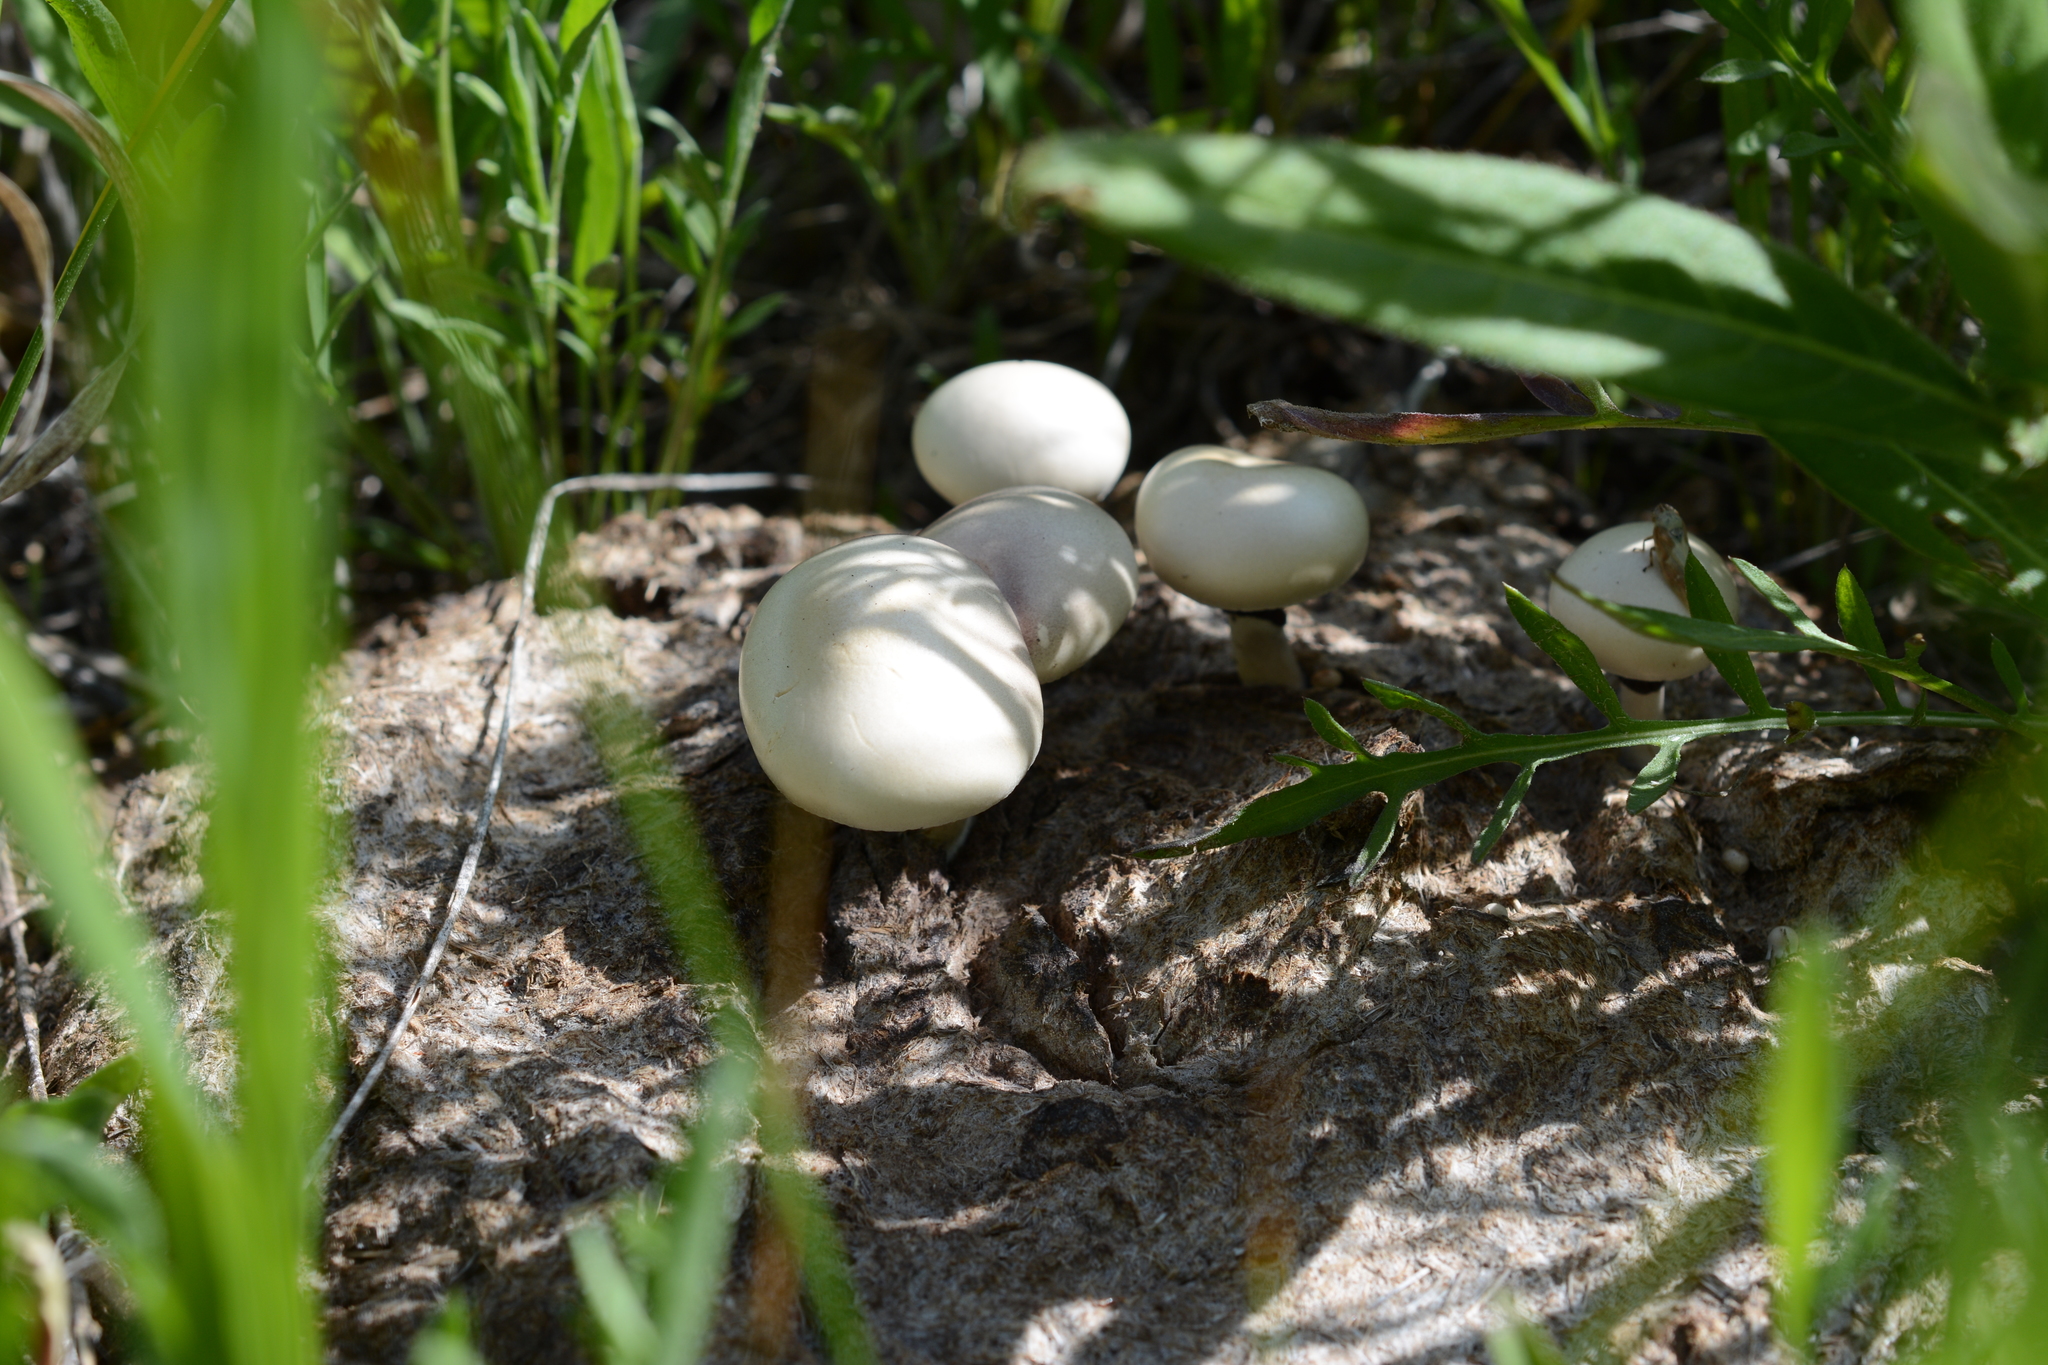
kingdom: Fungi
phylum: Basidiomycota
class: Agaricomycetes
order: Agaricales
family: Strophariaceae
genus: Protostropharia
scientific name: Protostropharia semiglobata
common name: Dung roundhead
